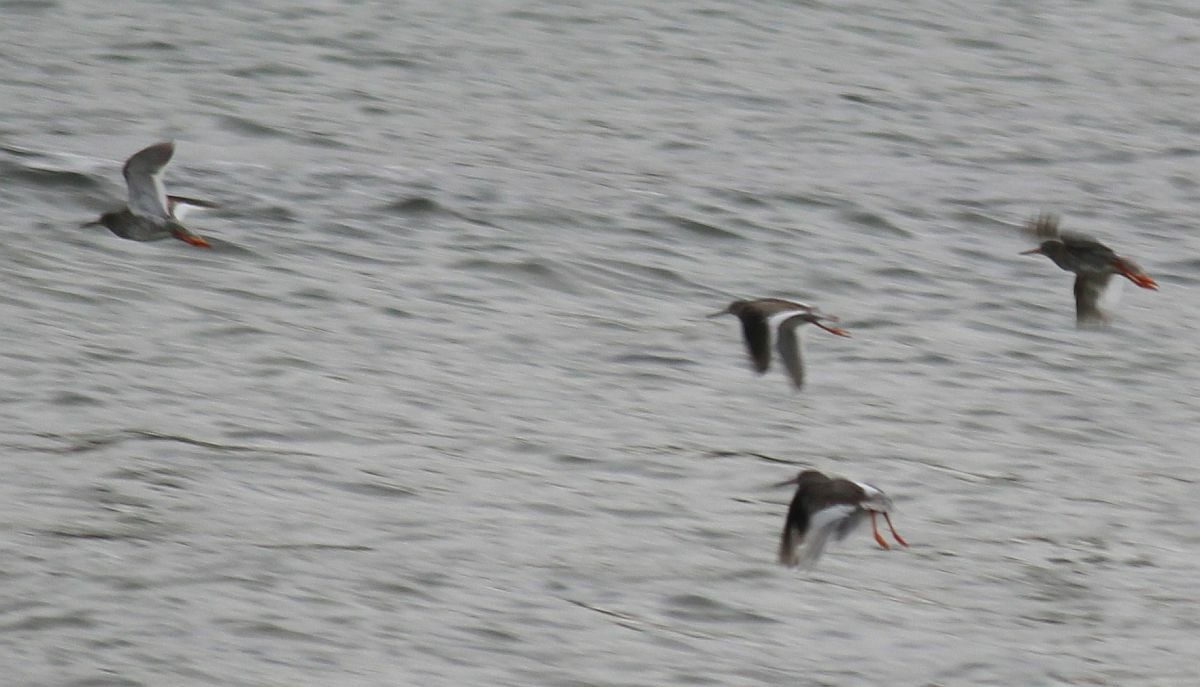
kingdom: Animalia
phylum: Chordata
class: Aves
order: Charadriiformes
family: Scolopacidae
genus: Tringa
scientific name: Tringa totanus
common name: Common redshank
